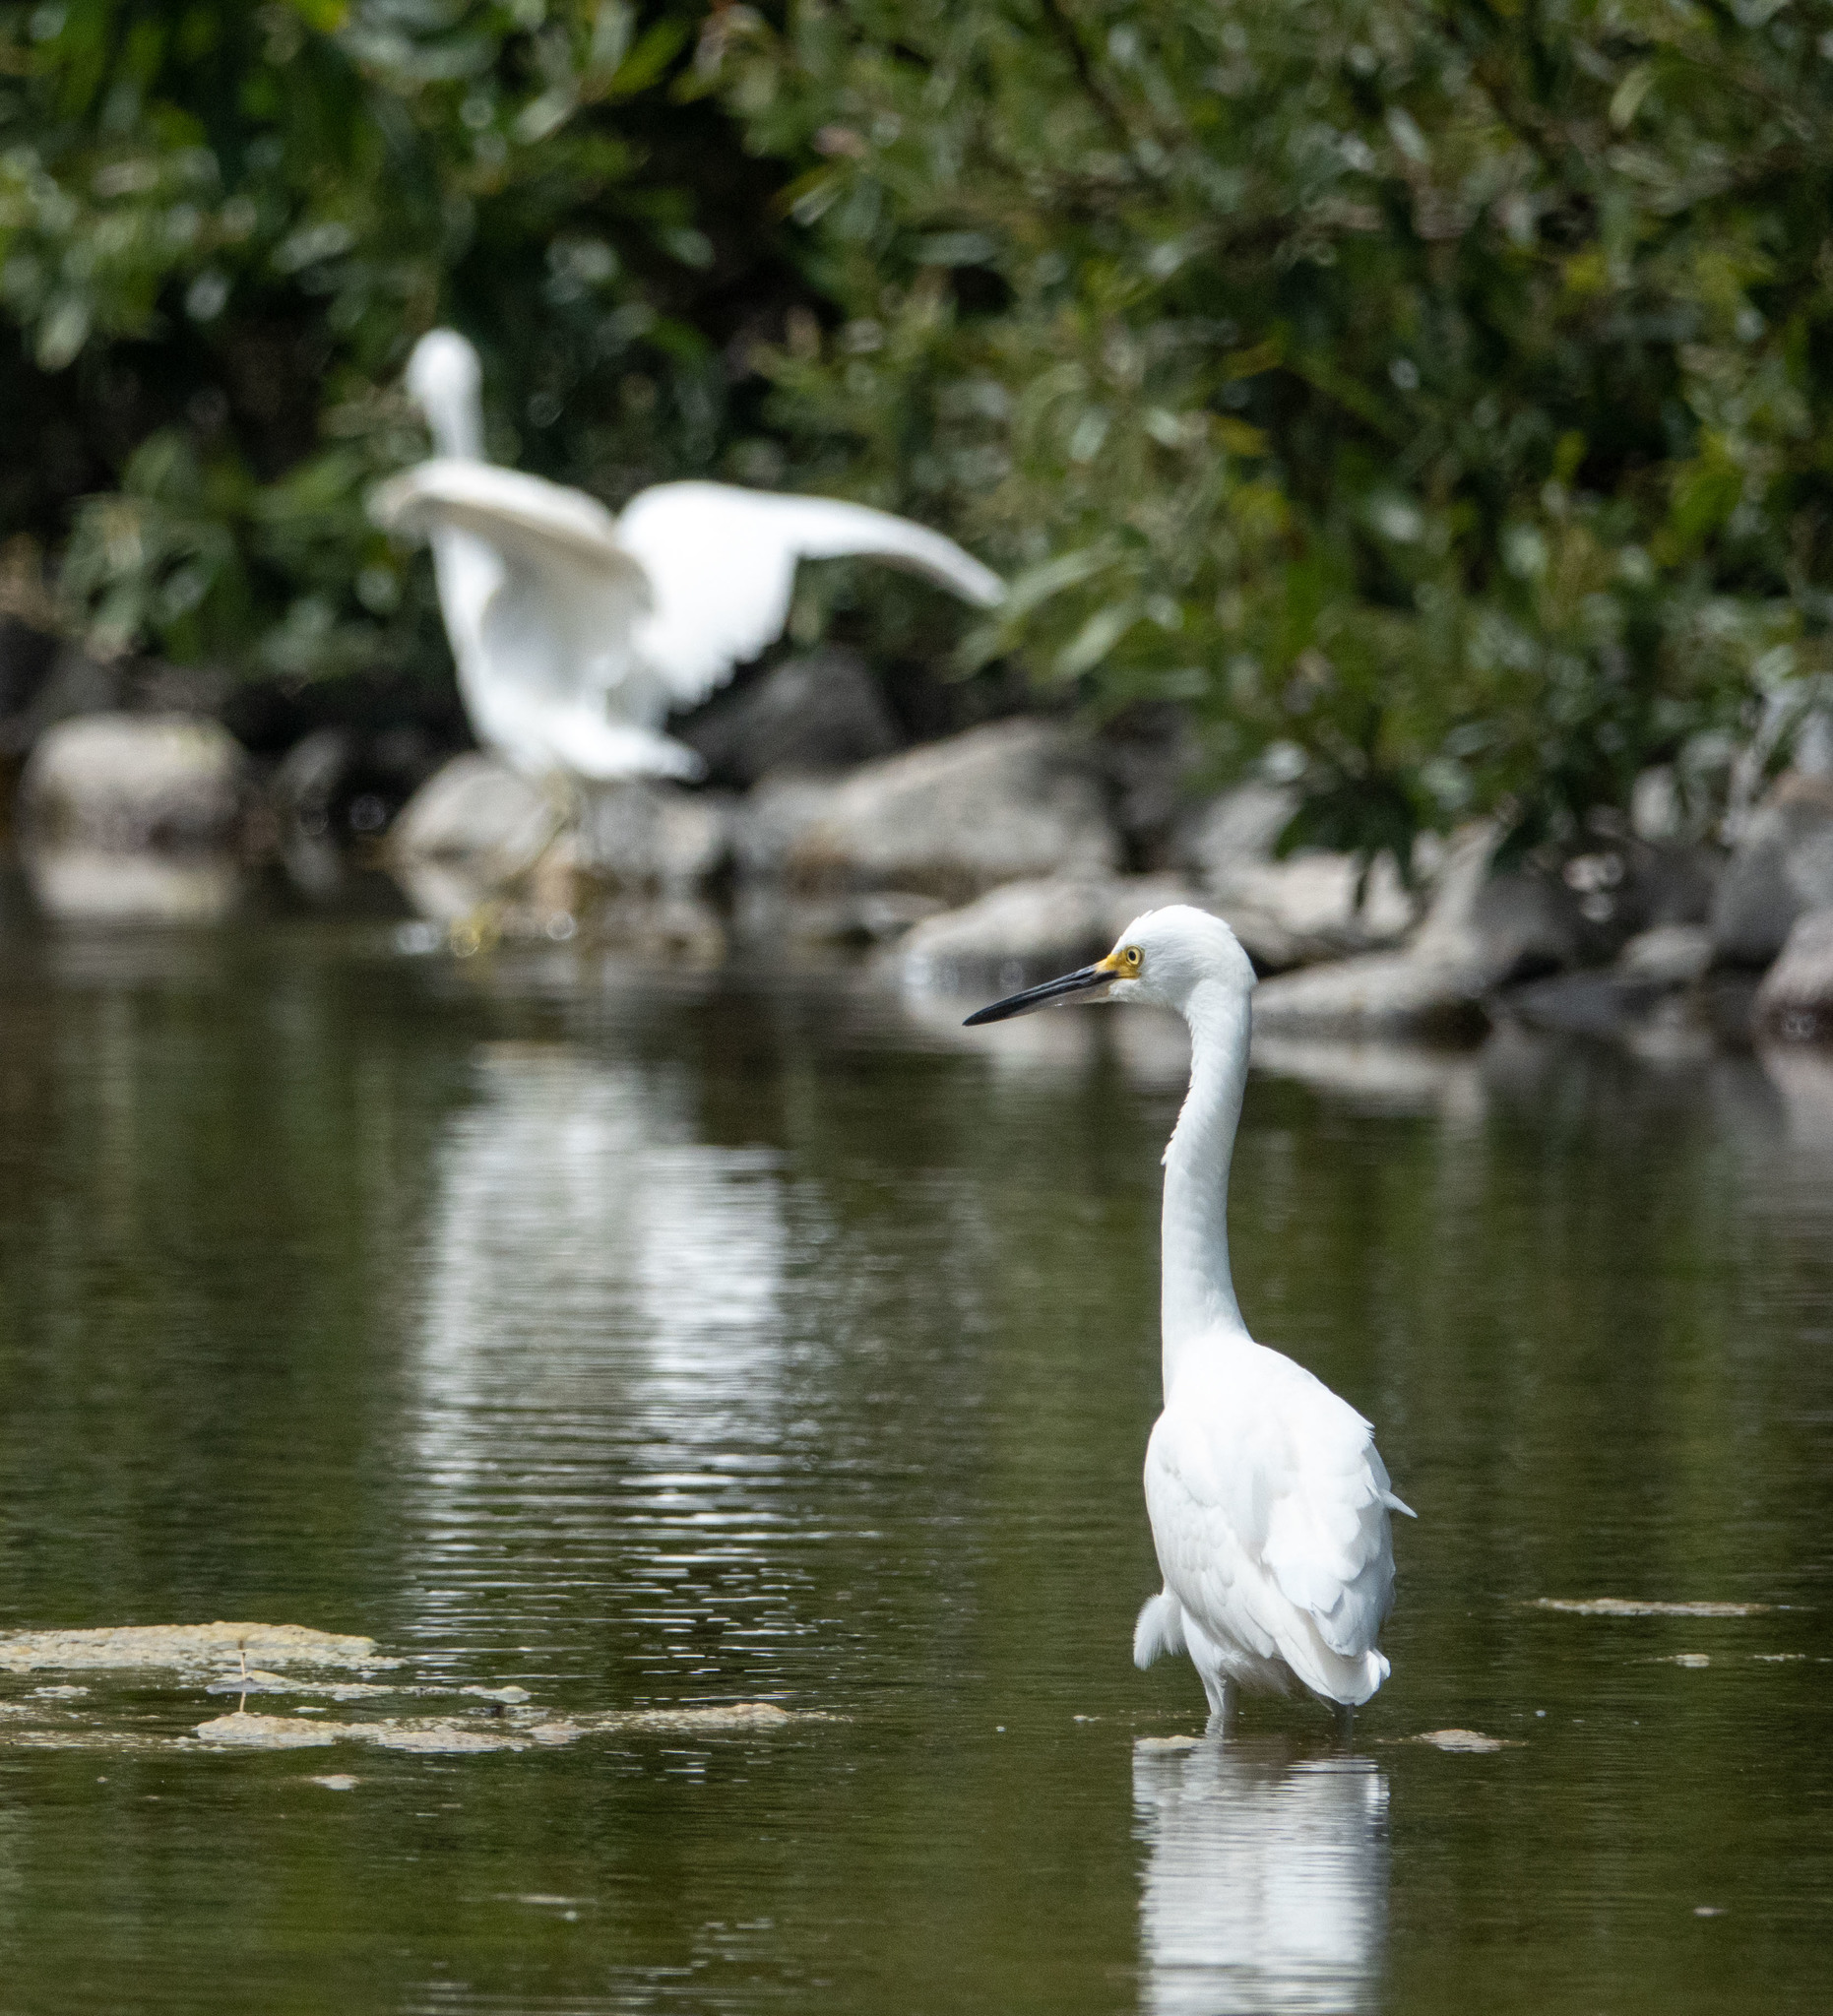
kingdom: Animalia
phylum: Chordata
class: Aves
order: Pelecaniformes
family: Ardeidae
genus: Egretta
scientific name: Egretta thula
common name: Snowy egret
